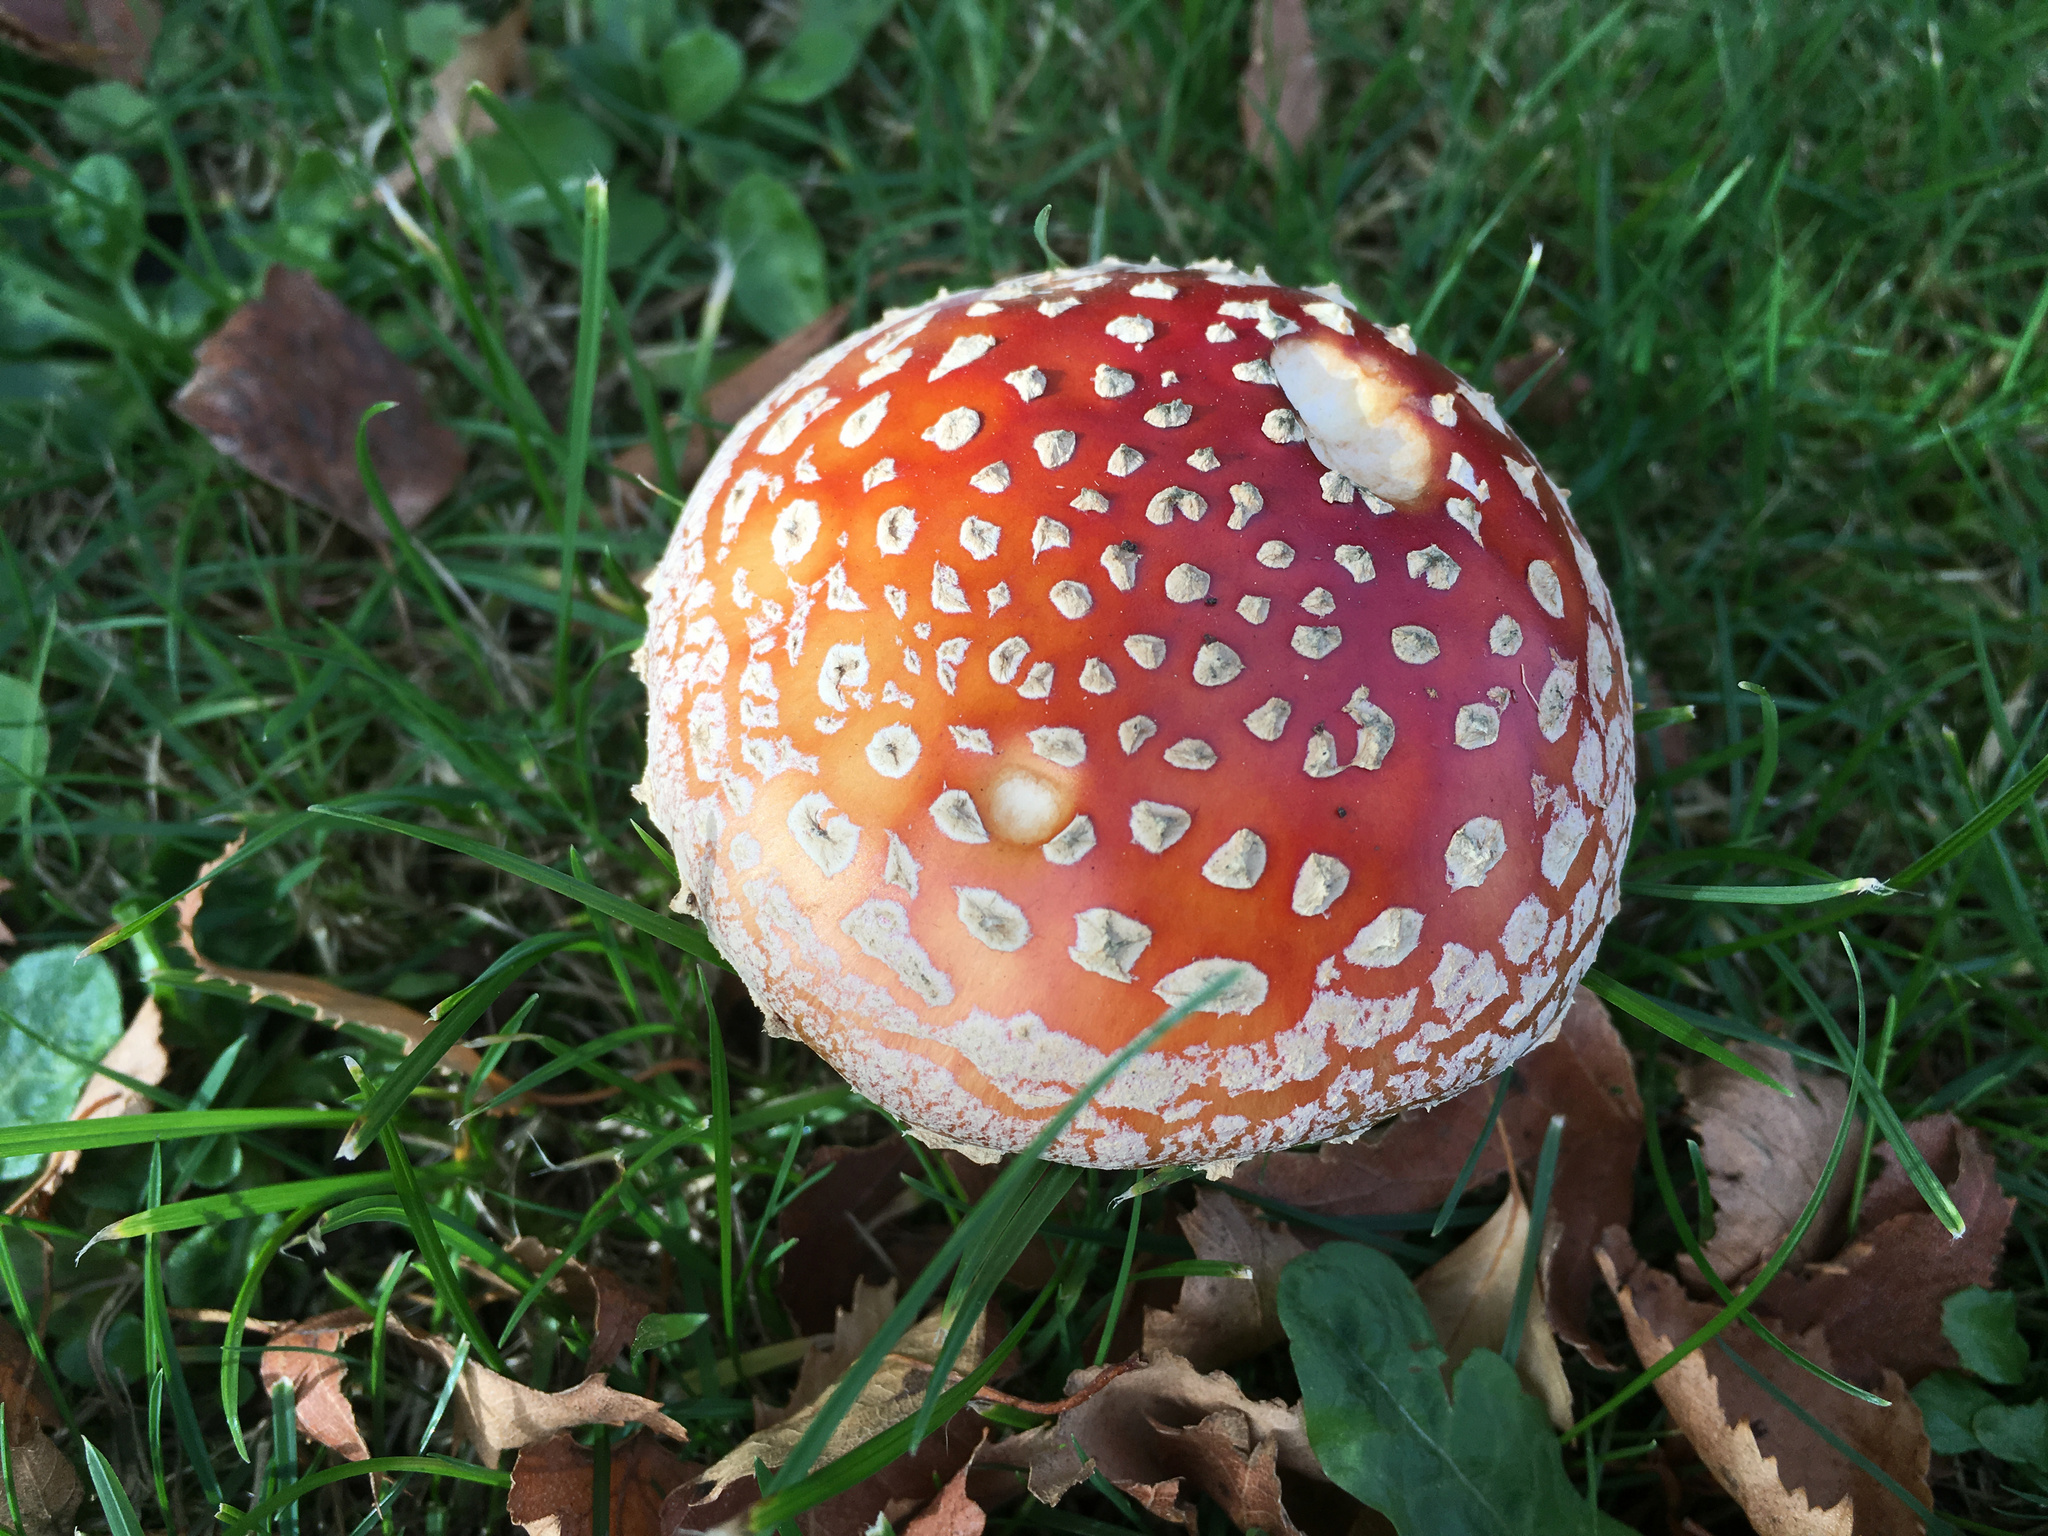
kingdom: Fungi
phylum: Basidiomycota
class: Agaricomycetes
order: Agaricales
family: Amanitaceae
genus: Amanita
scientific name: Amanita muscaria
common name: Fly agaric
